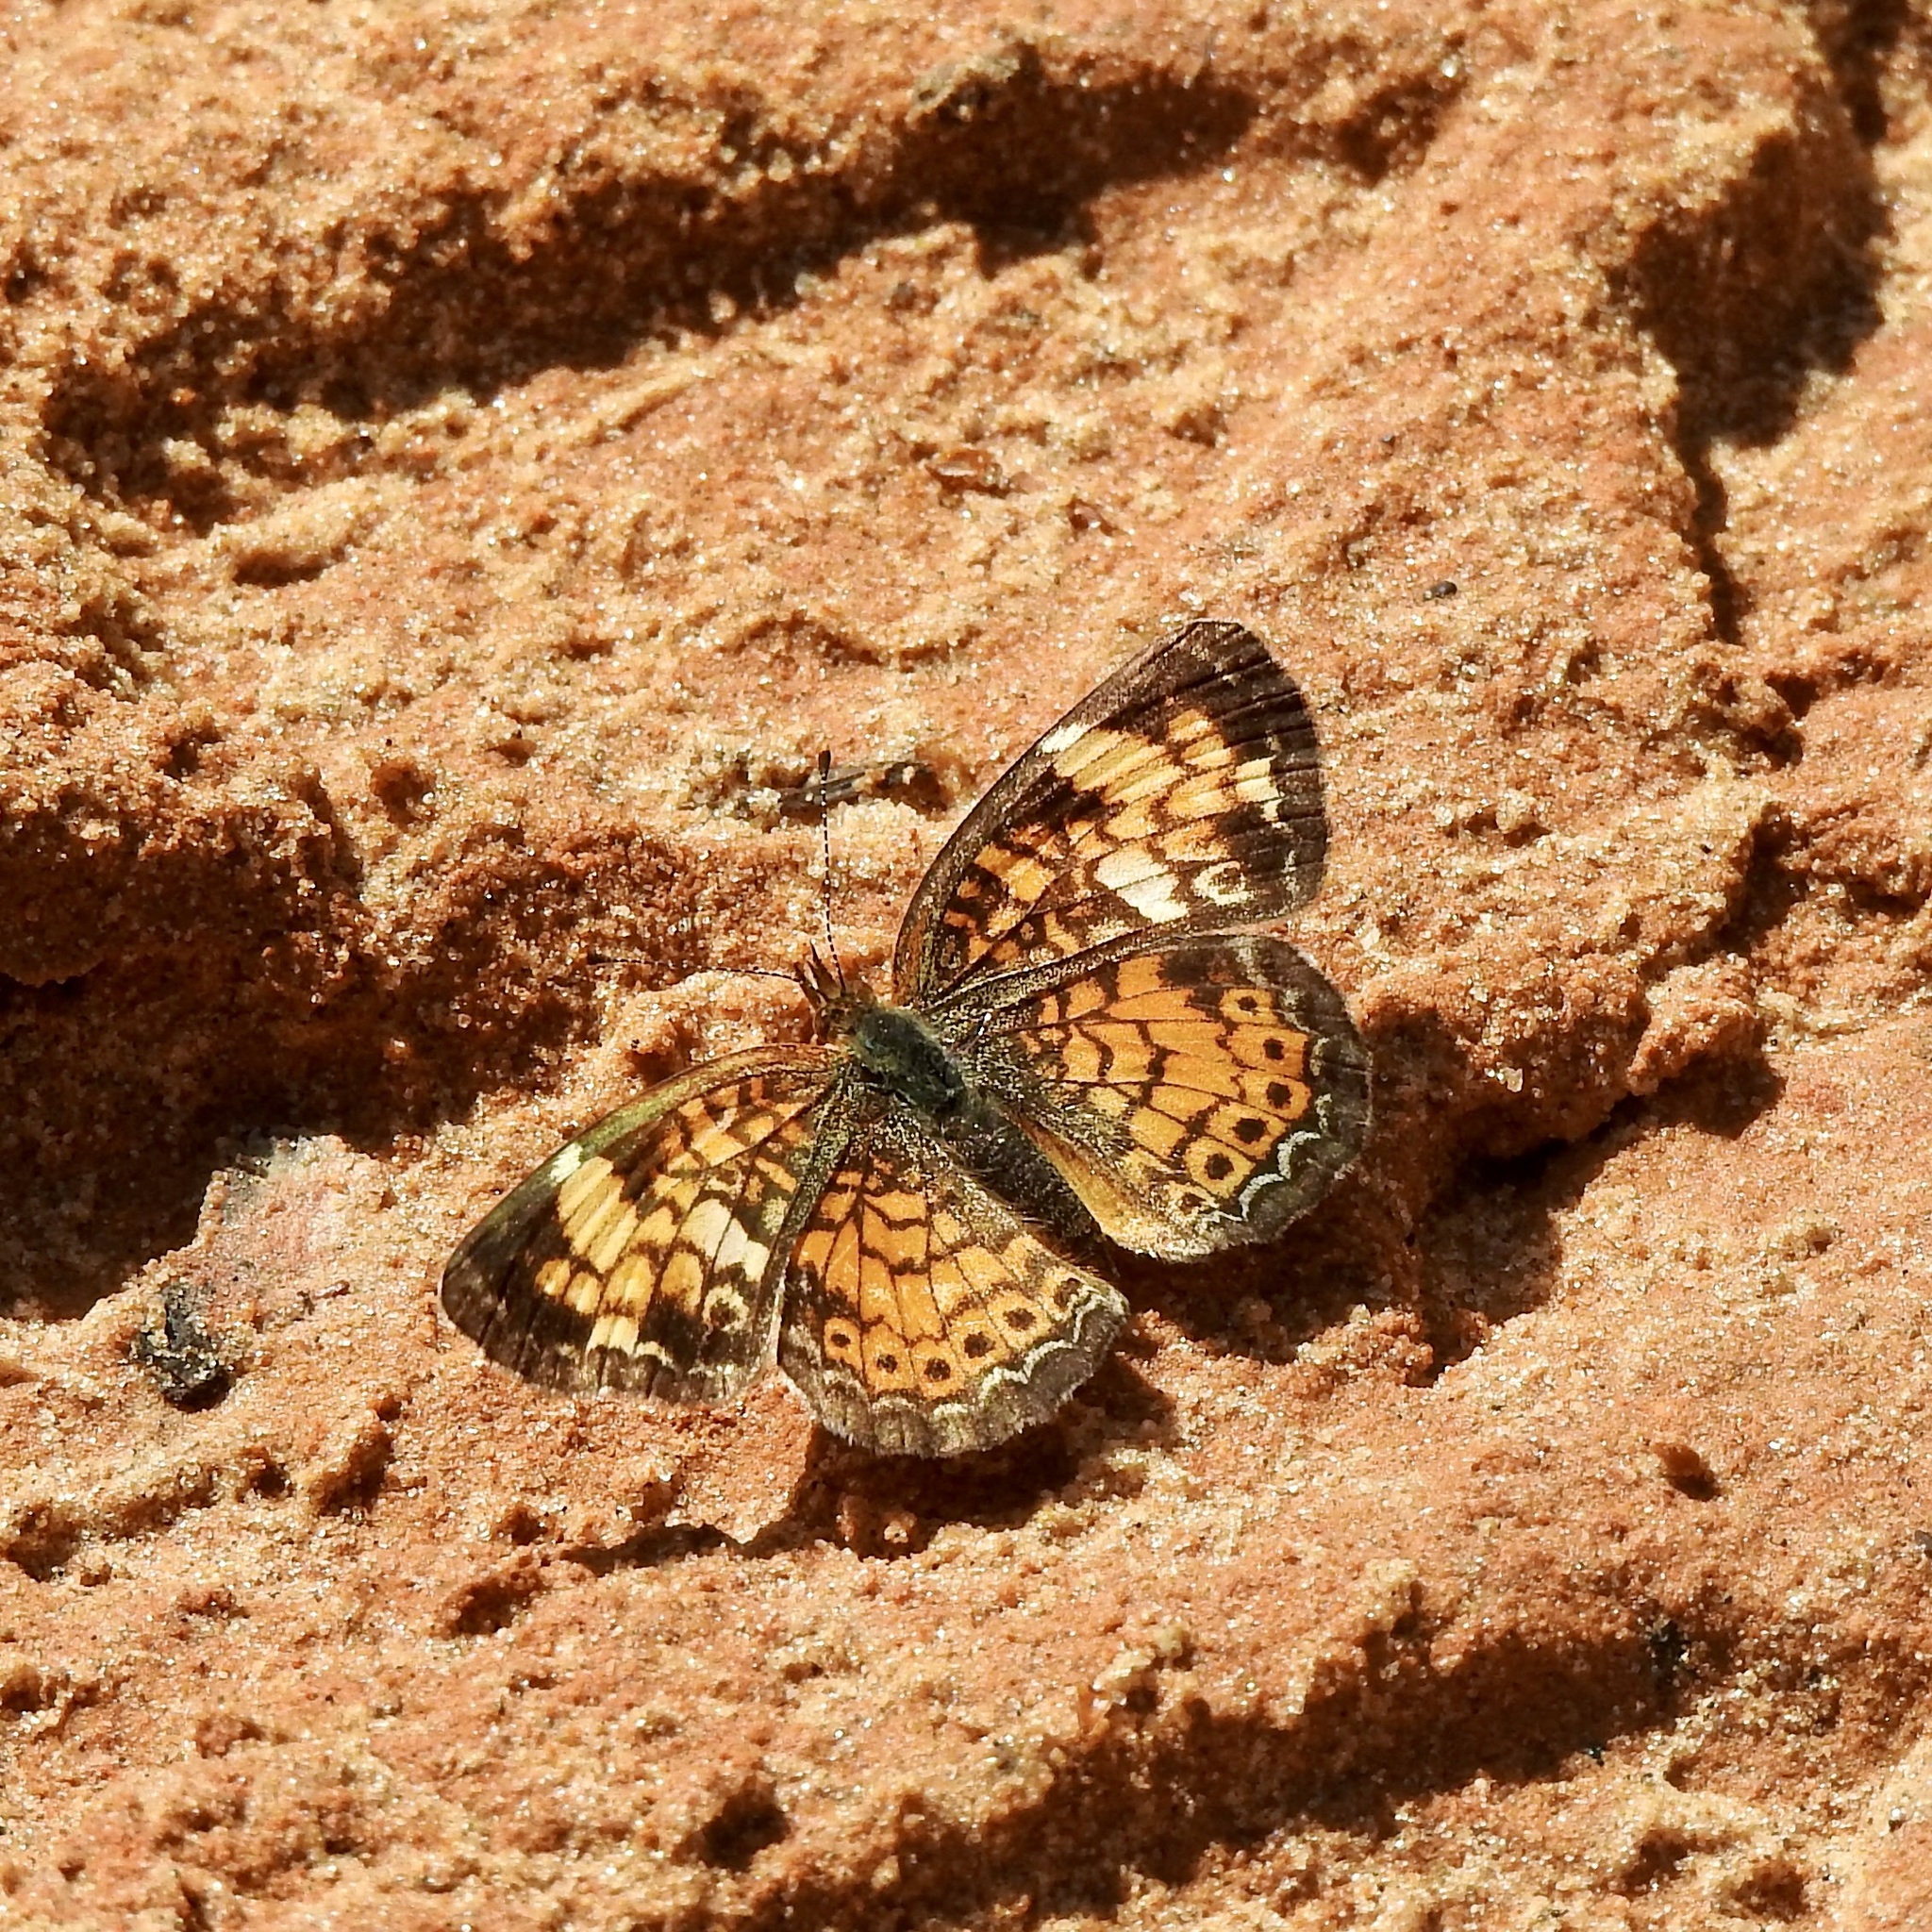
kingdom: Animalia
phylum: Arthropoda
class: Insecta
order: Lepidoptera
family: Nymphalidae
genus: Phyciodes
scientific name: Phyciodes tharos
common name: Pearl crescent
